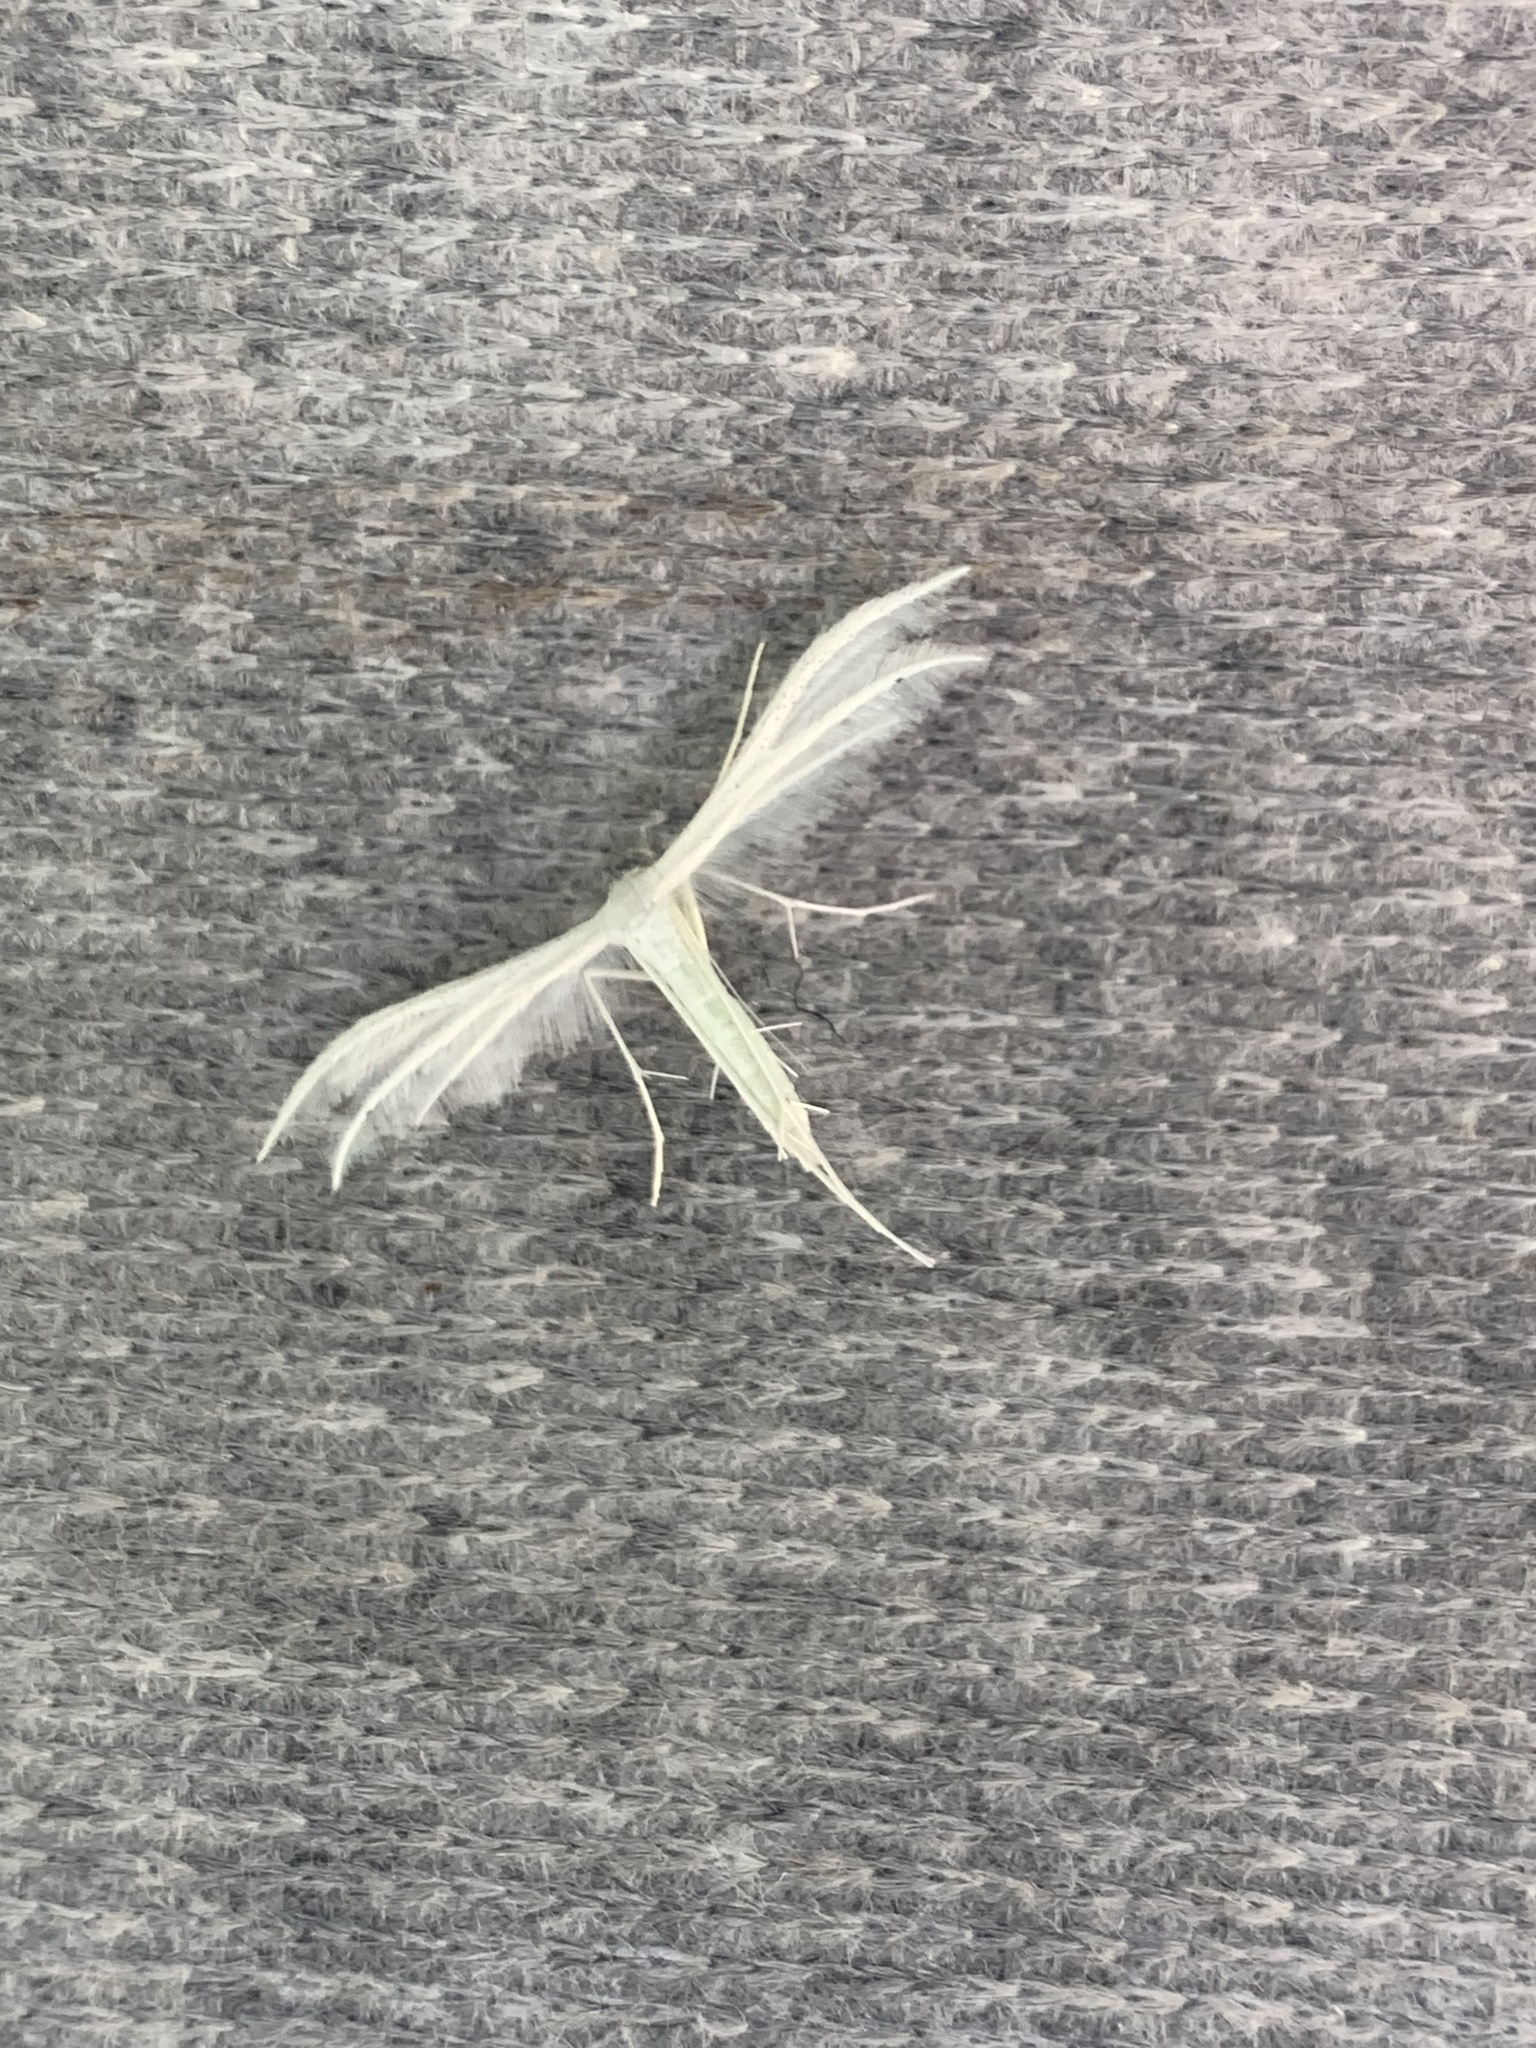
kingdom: Animalia
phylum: Arthropoda
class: Insecta
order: Lepidoptera
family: Pterophoridae
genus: Pterophorus
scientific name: Pterophorus pentadactyla
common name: White plume moth
